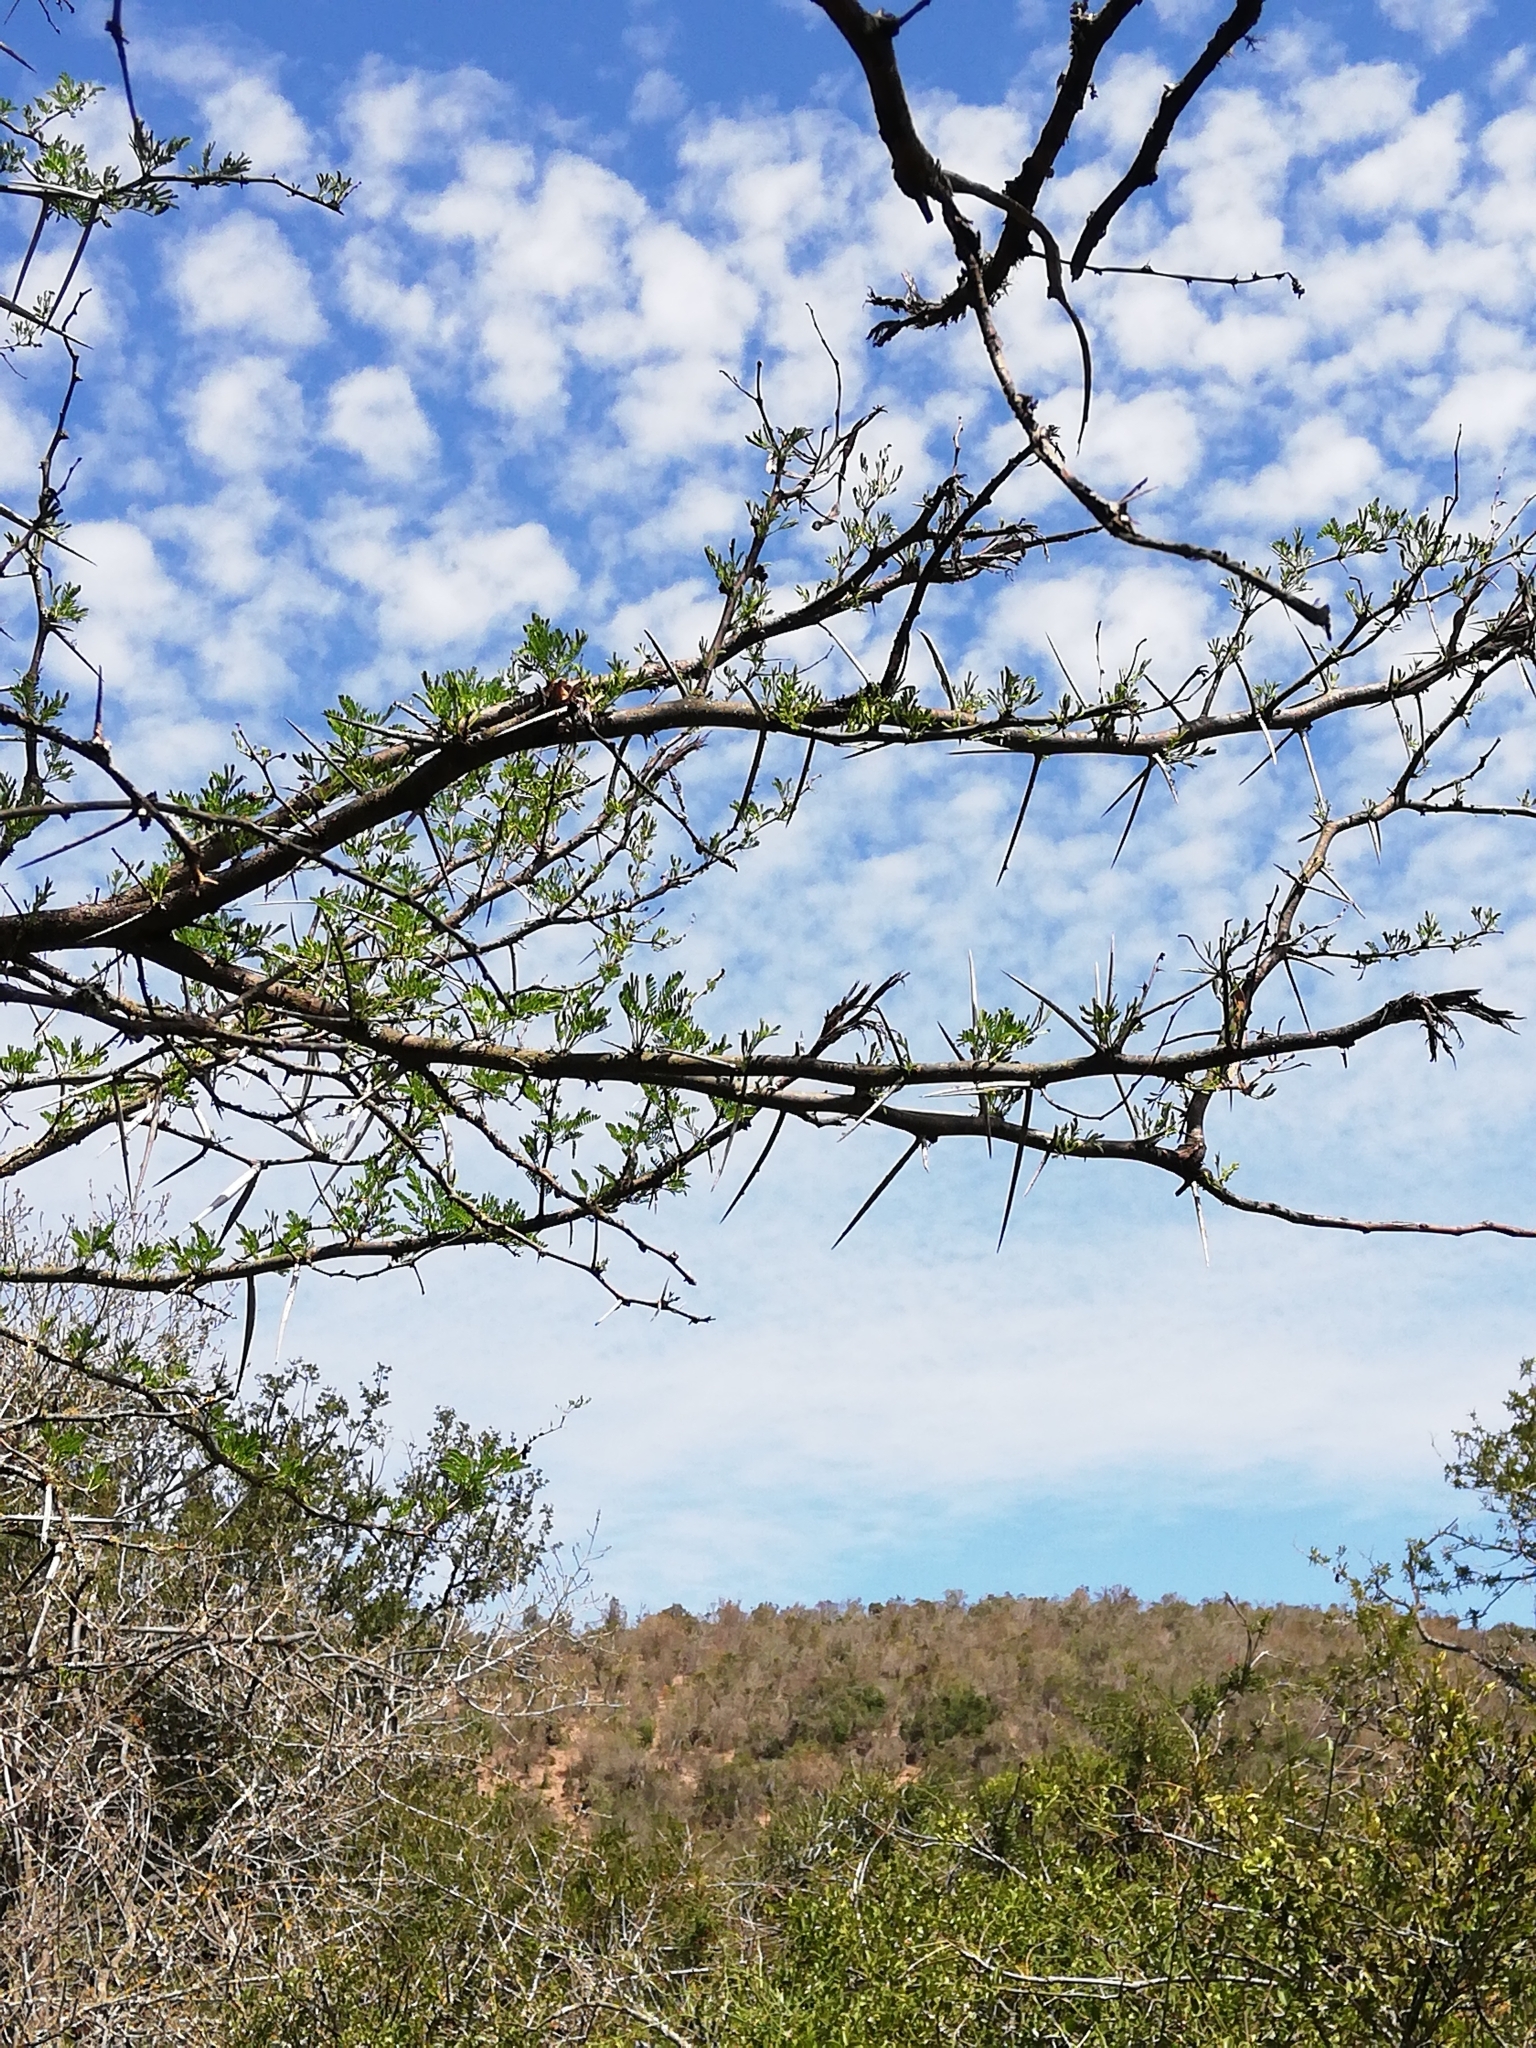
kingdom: Plantae
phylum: Tracheophyta
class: Magnoliopsida
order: Fabales
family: Fabaceae
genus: Vachellia
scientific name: Vachellia karroo
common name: Sweet thorn
